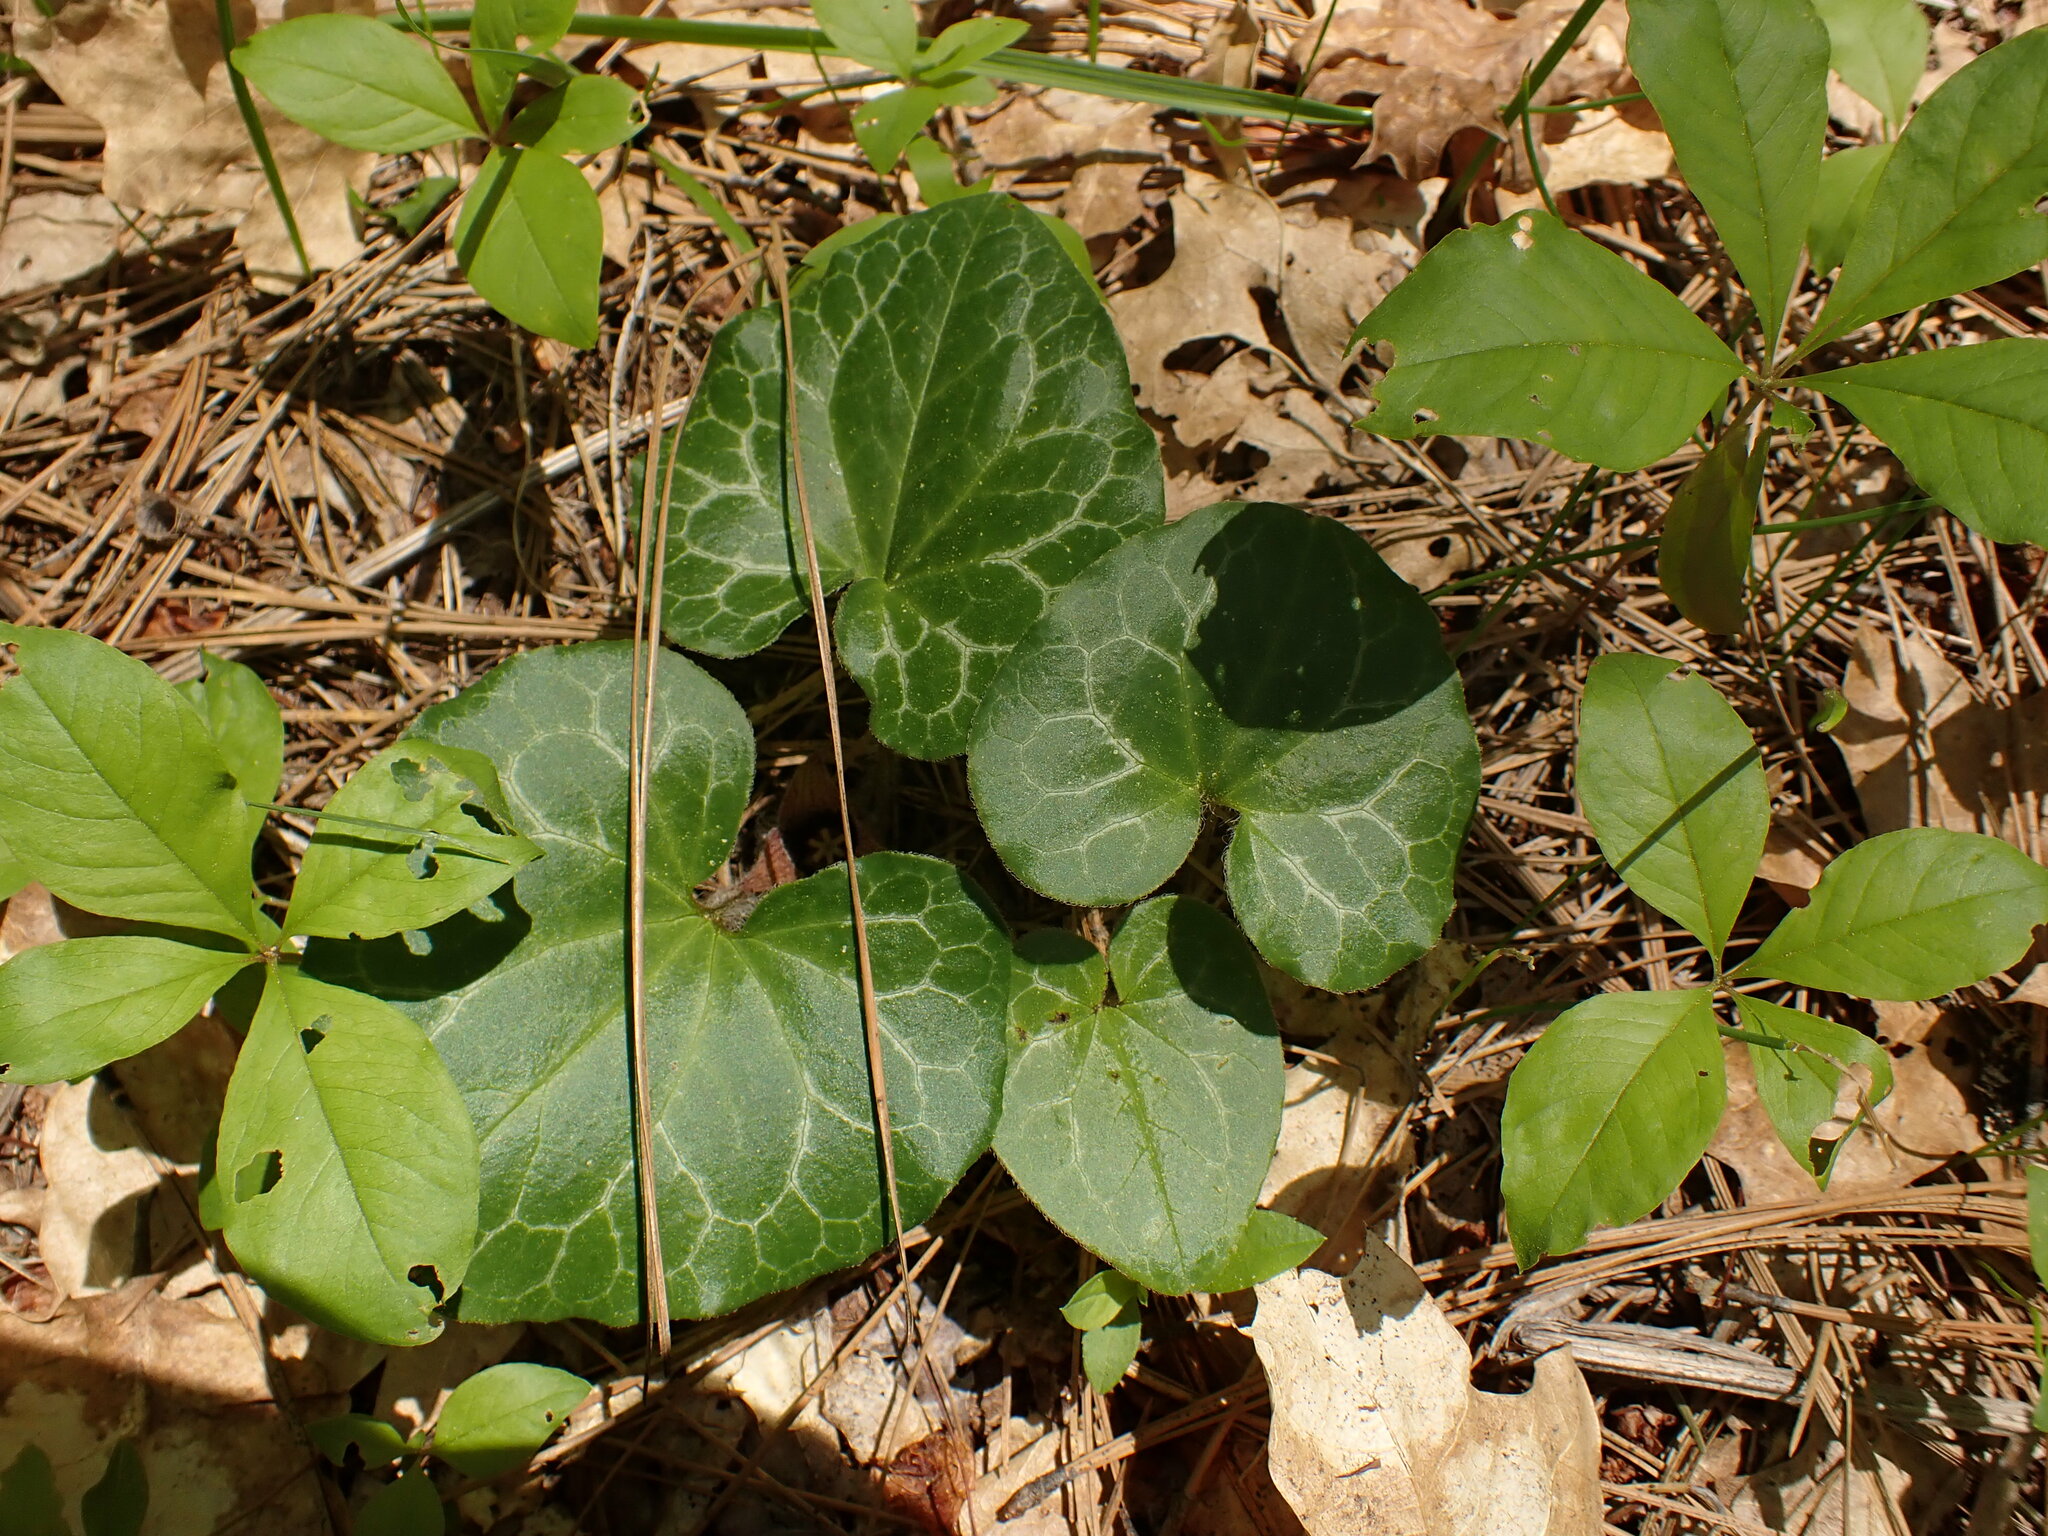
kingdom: Plantae
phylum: Tracheophyta
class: Magnoliopsida
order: Piperales
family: Aristolochiaceae
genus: Asarum
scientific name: Asarum hartwegii
